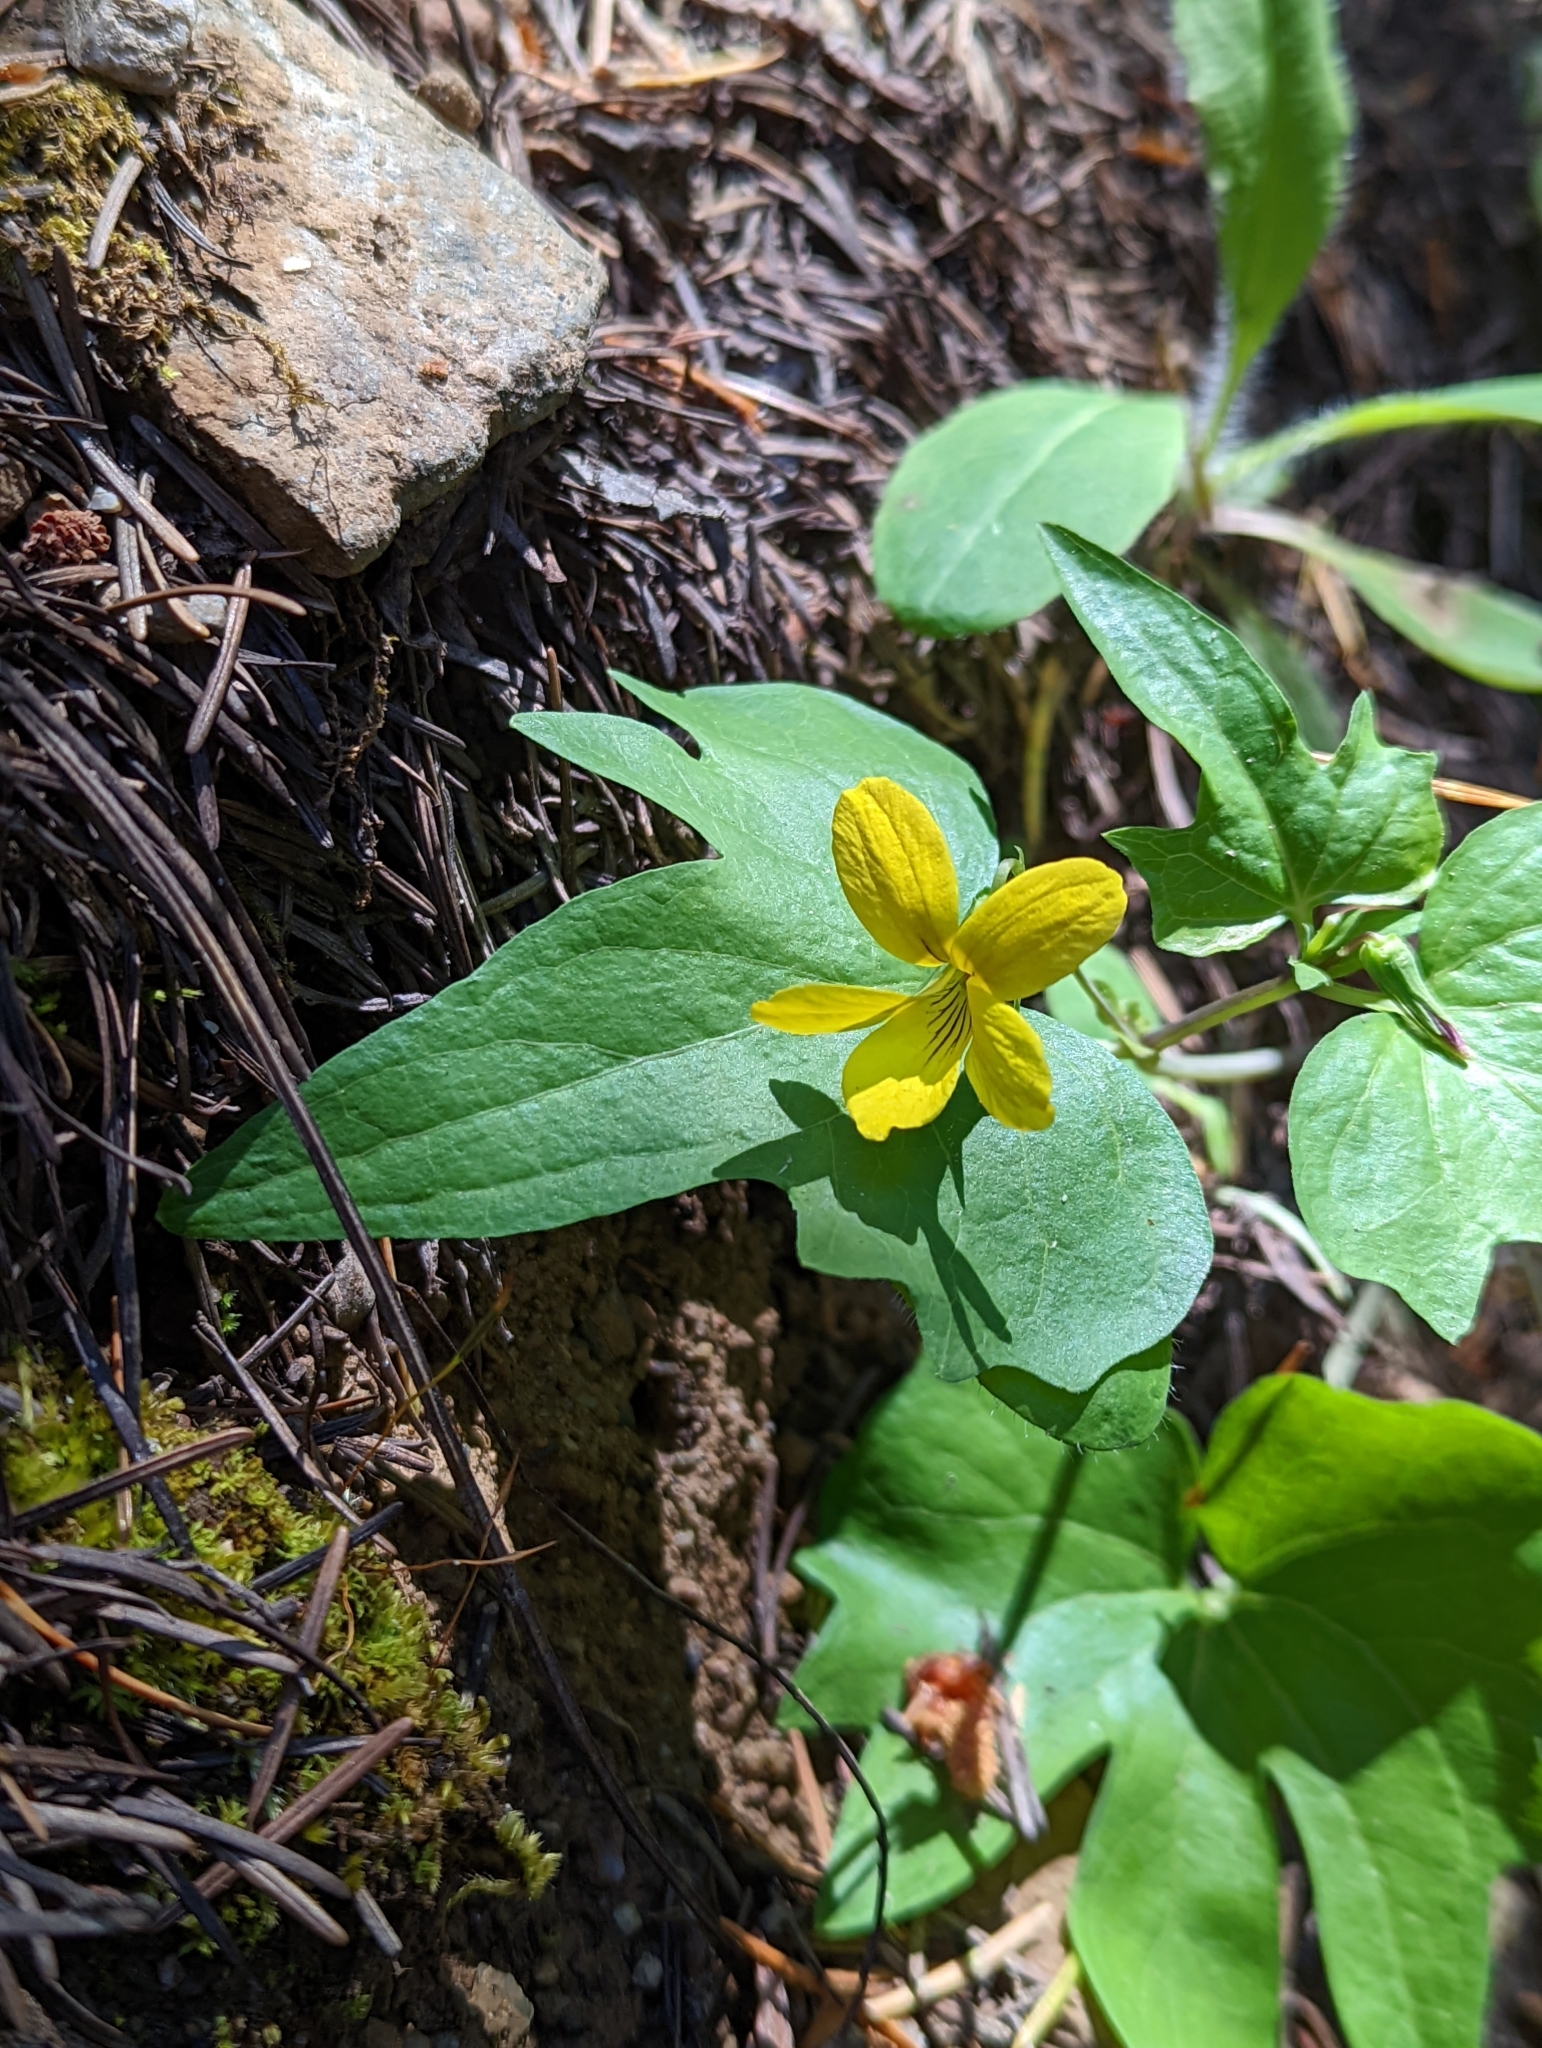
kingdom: Plantae
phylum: Tracheophyta
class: Magnoliopsida
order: Malpighiales
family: Violaceae
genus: Viola
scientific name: Viola lobata
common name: Pine violet
